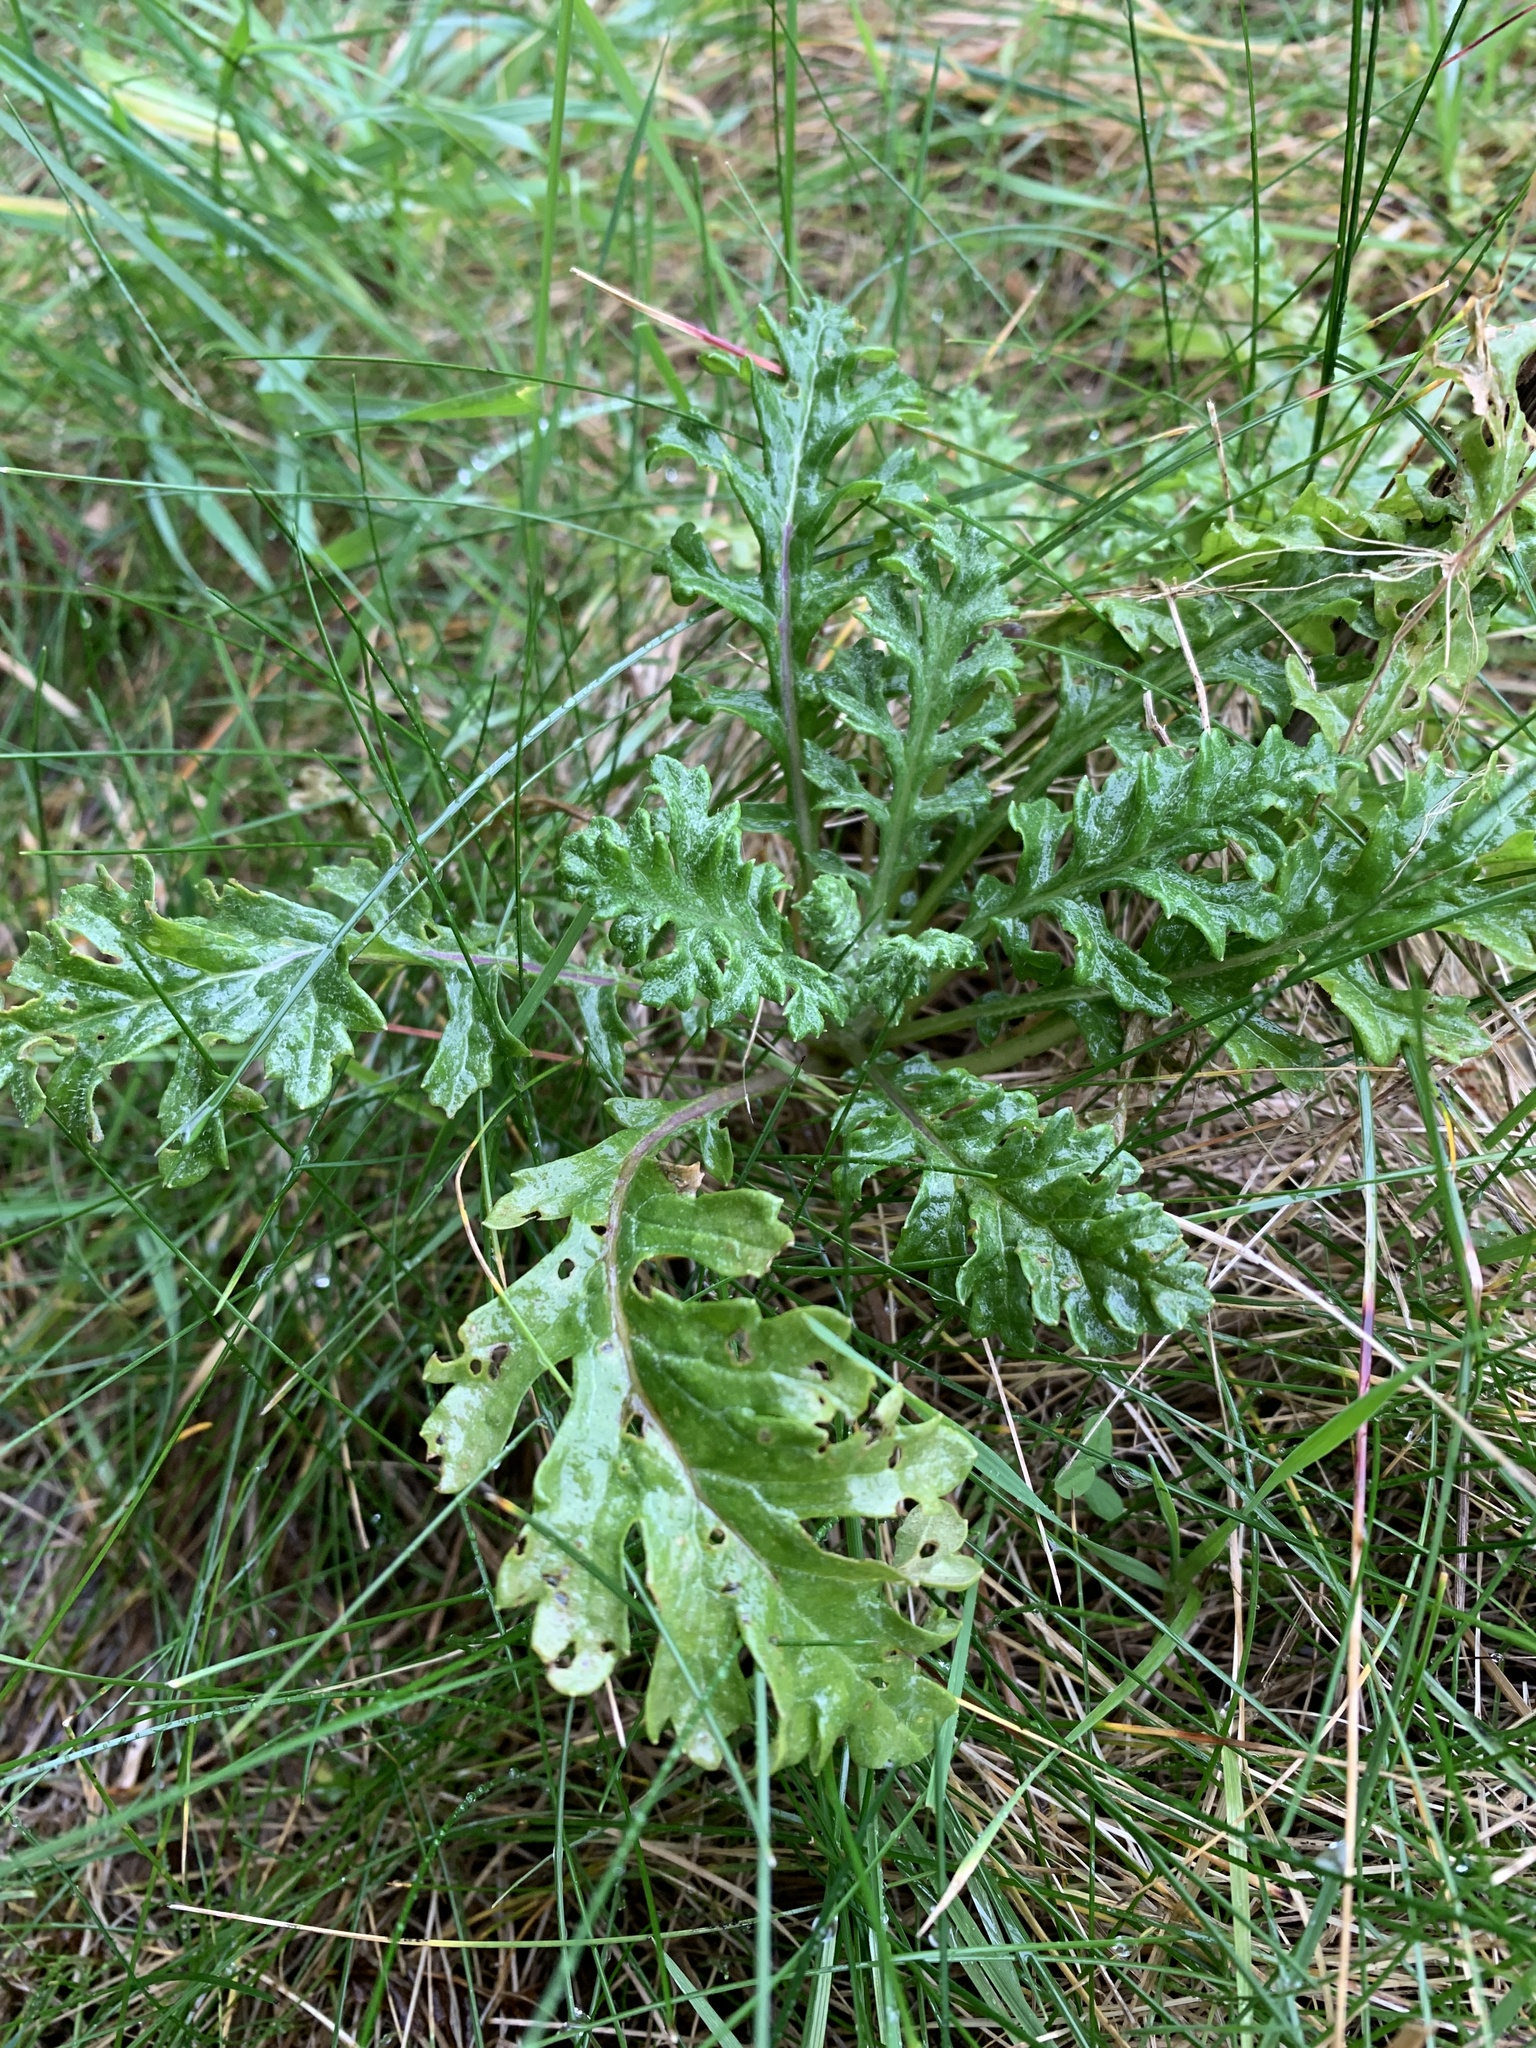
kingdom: Plantae
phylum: Tracheophyta
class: Magnoliopsida
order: Asterales
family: Asteraceae
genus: Jacobaea
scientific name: Jacobaea vulgaris
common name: Stinking willie
